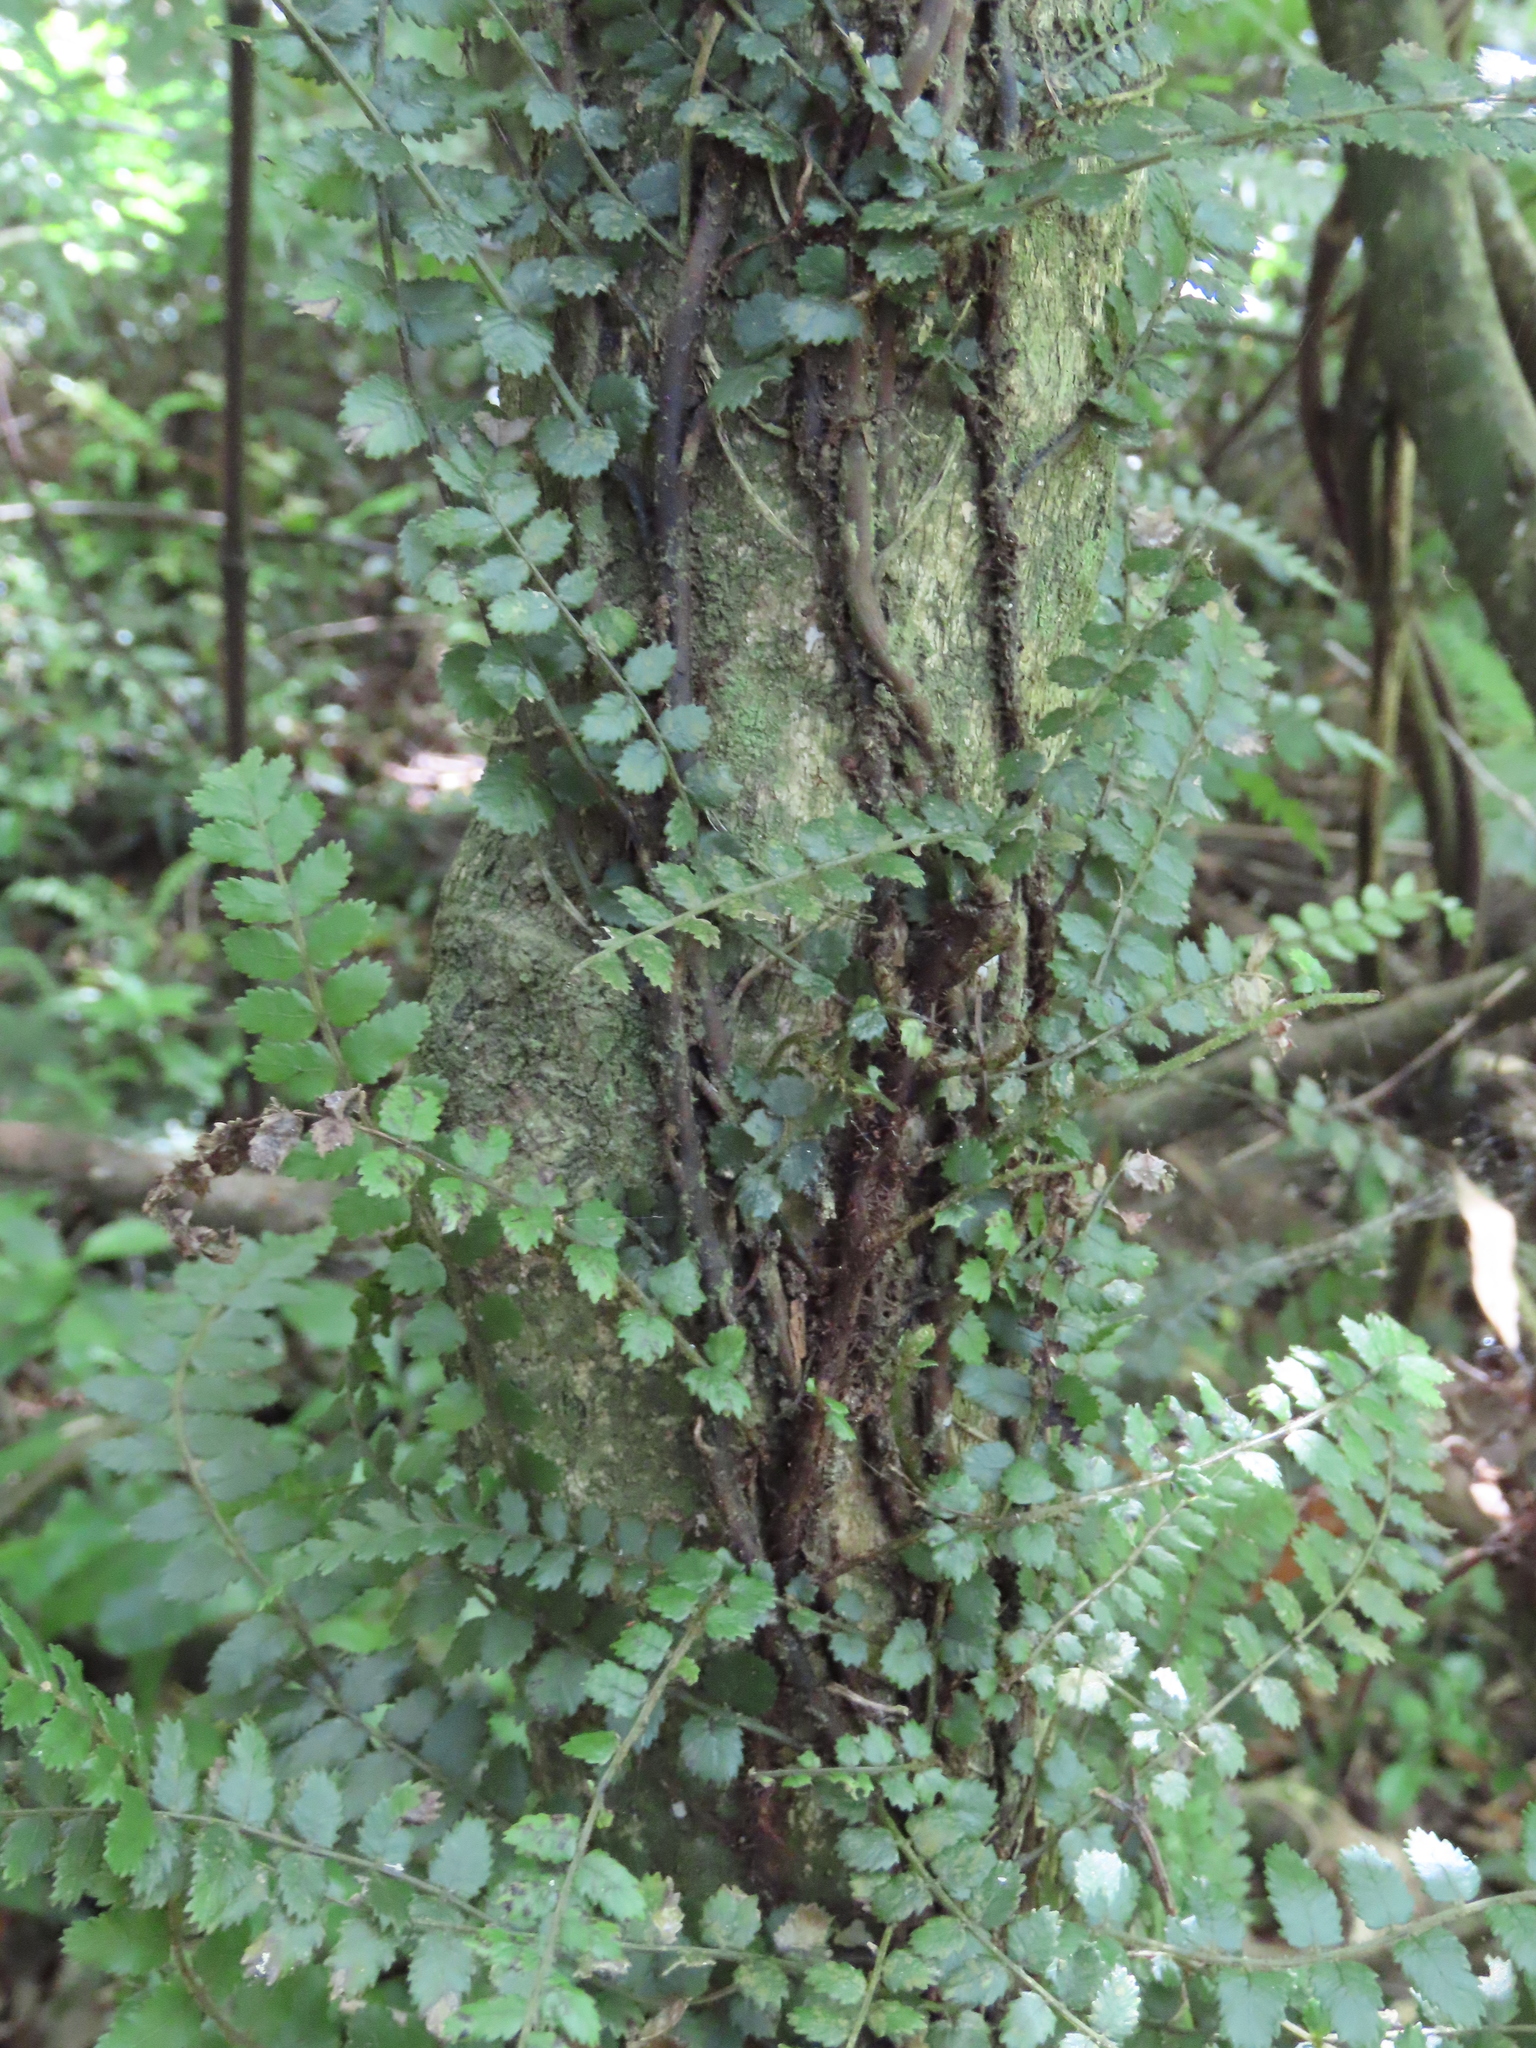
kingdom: Plantae
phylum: Tracheophyta
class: Polypodiopsida
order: Polypodiales
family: Blechnaceae
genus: Icarus
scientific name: Icarus filiformis
